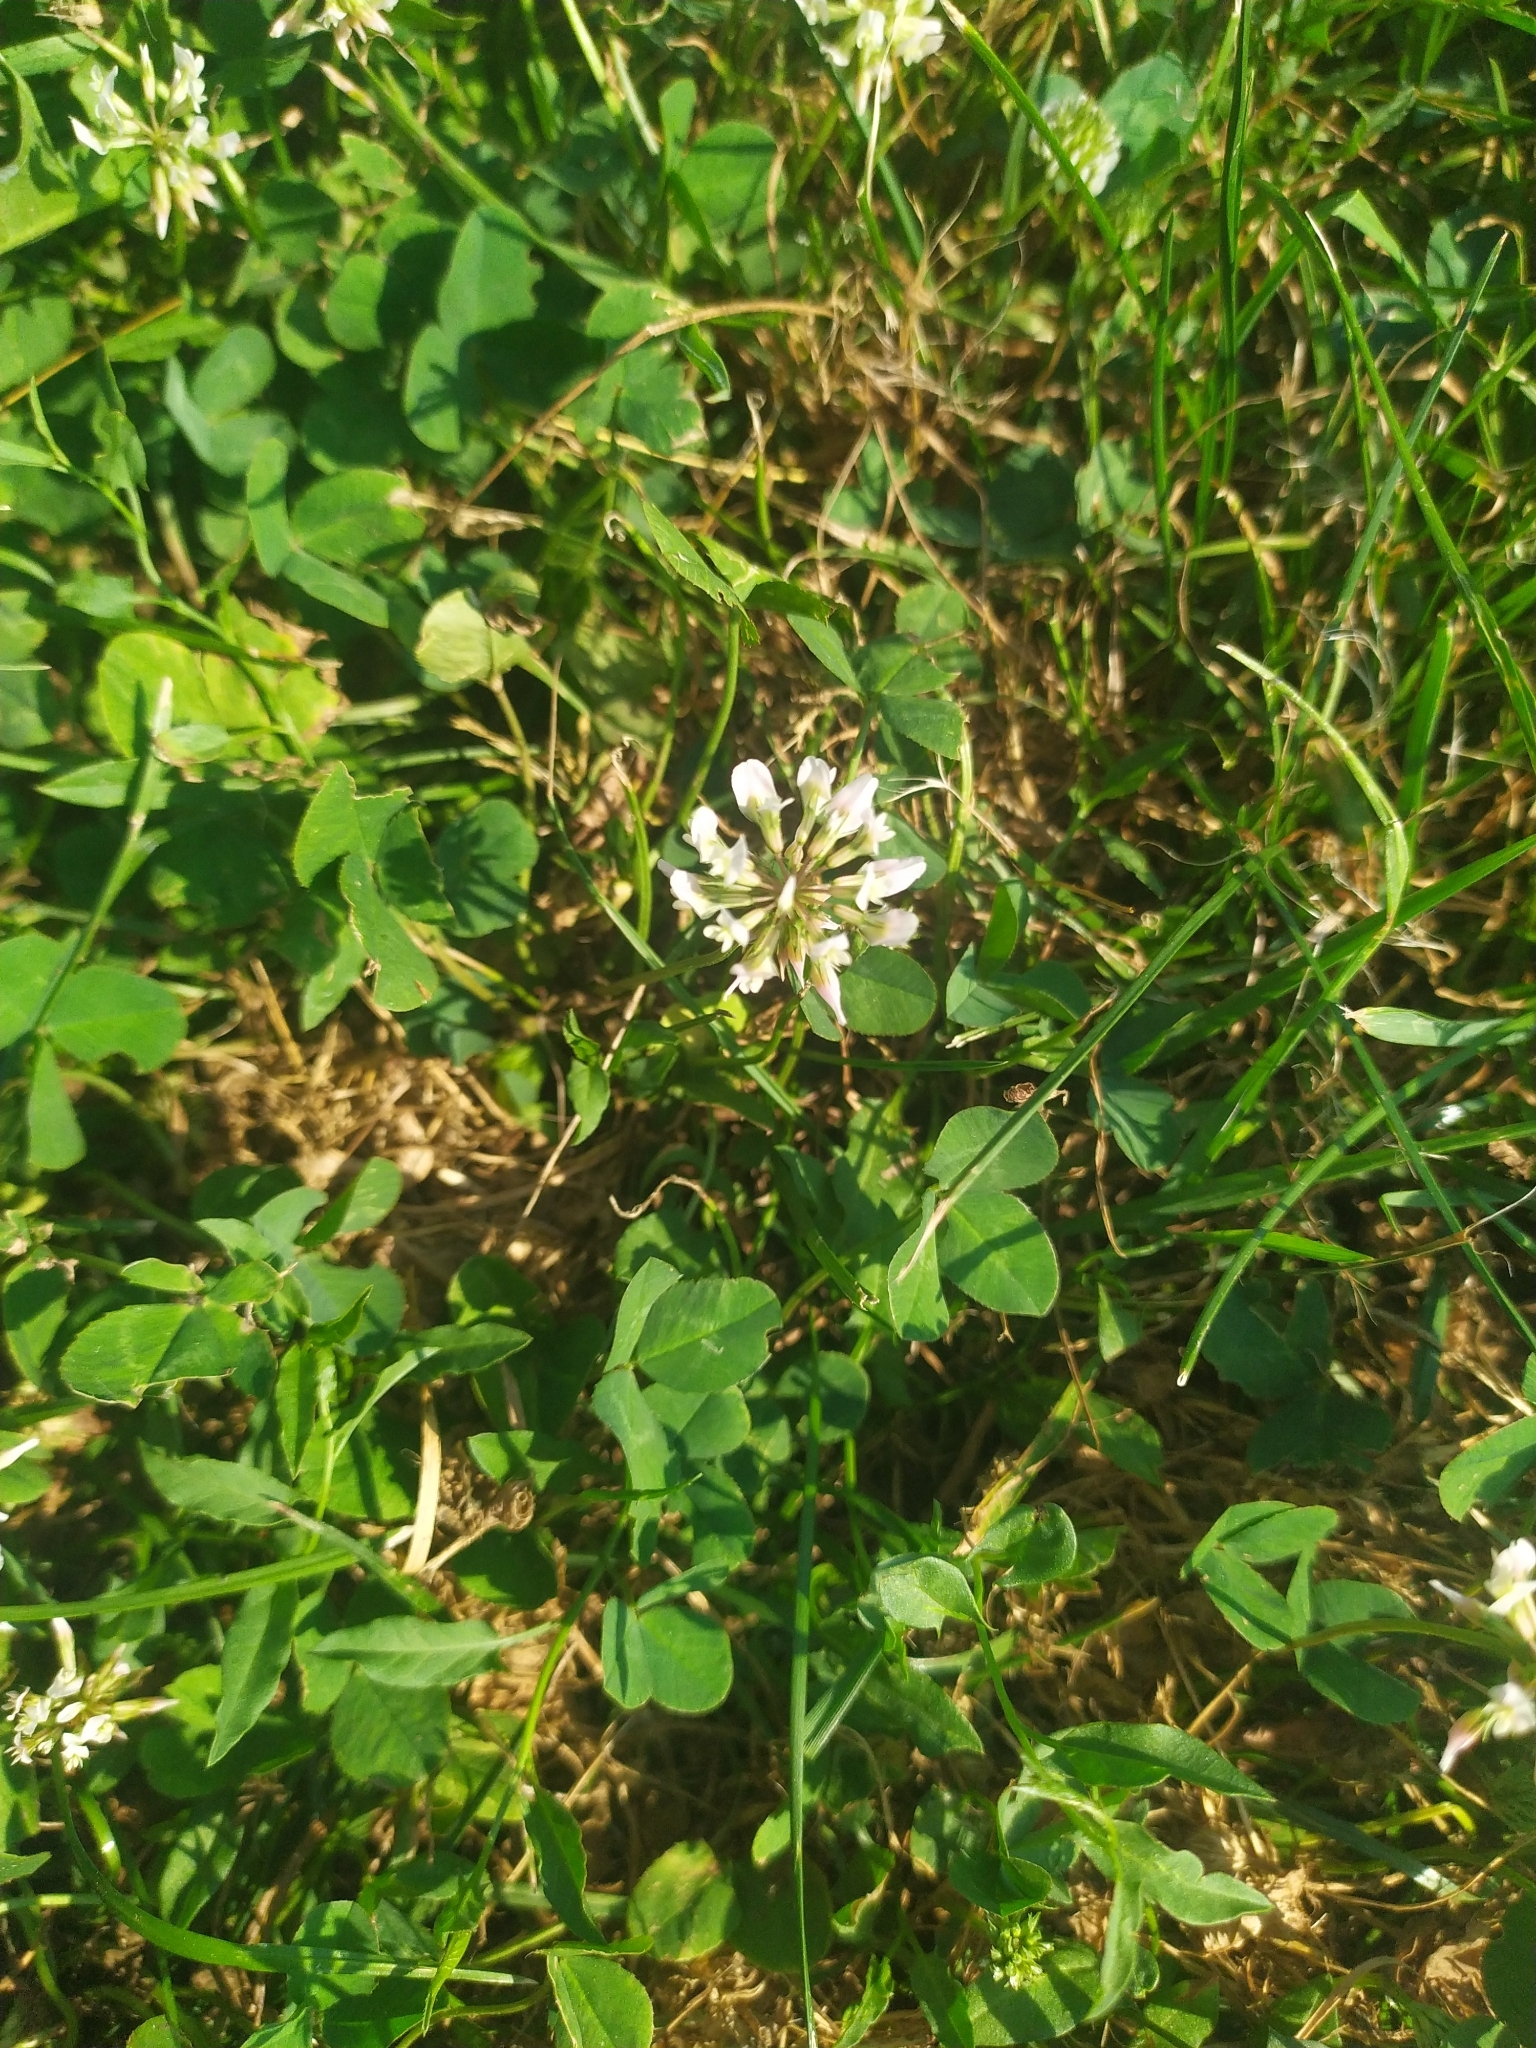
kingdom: Plantae
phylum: Tracheophyta
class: Magnoliopsida
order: Fabales
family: Fabaceae
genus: Trifolium
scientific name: Trifolium repens
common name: White clover
